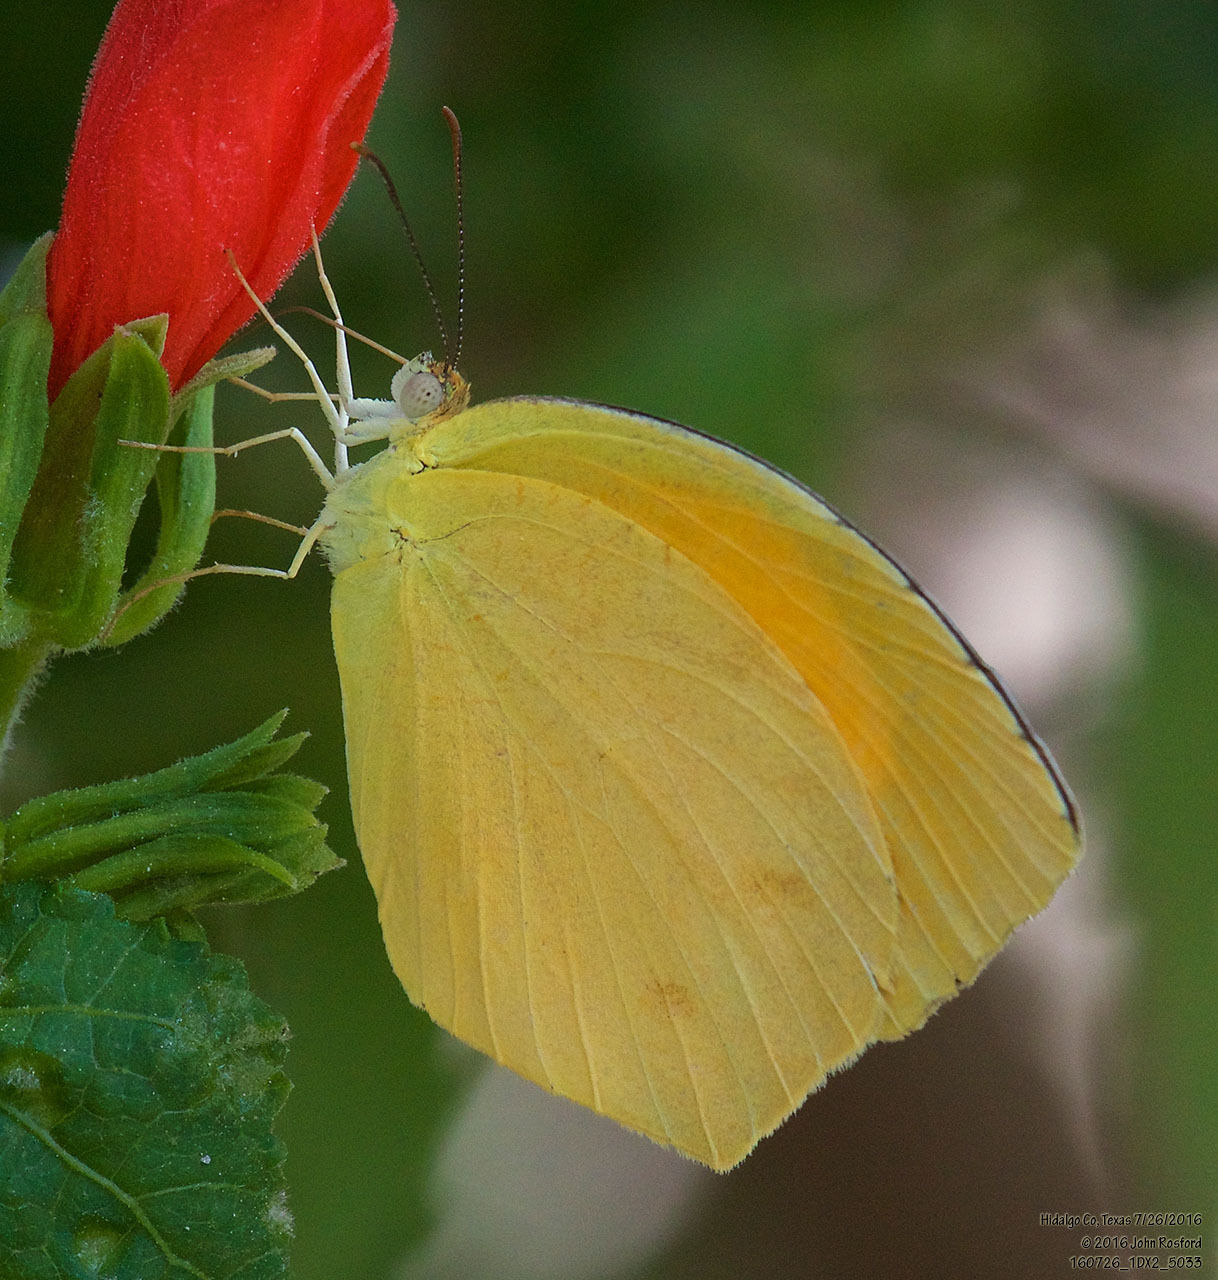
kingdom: Animalia
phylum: Arthropoda
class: Insecta
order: Lepidoptera
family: Pieridae
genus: Pyrisitia
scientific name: Pyrisitia proterpia
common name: Tailed orange
